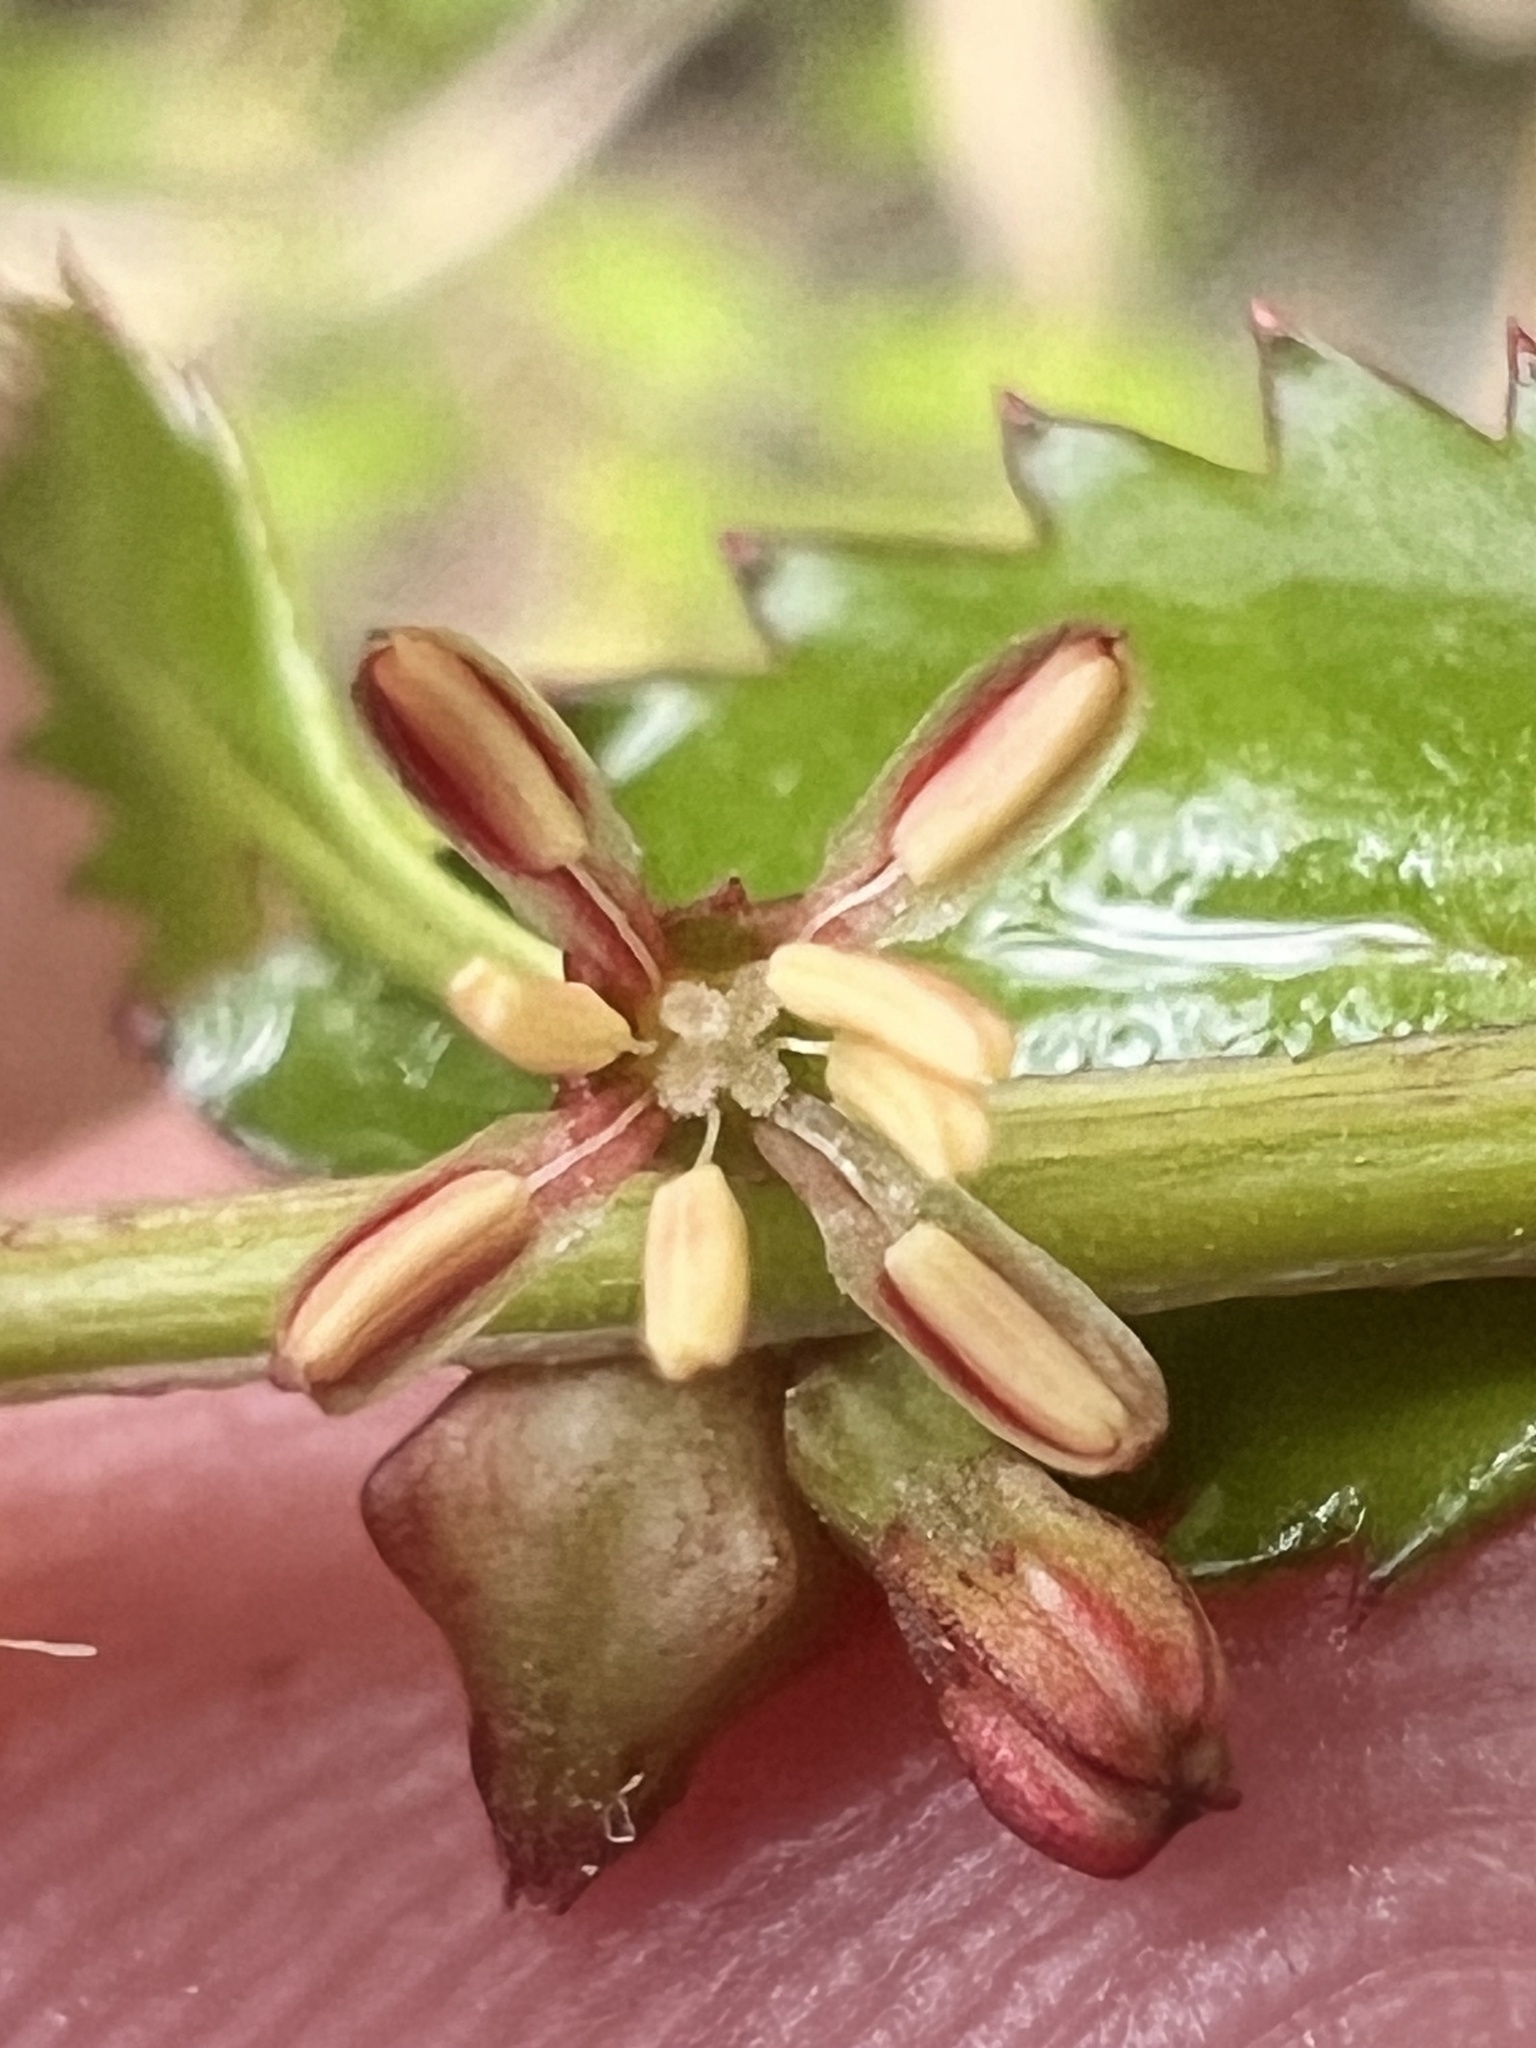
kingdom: Plantae
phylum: Tracheophyta
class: Magnoliopsida
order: Saxifragales
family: Haloragaceae
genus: Haloragis
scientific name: Haloragis erecta
